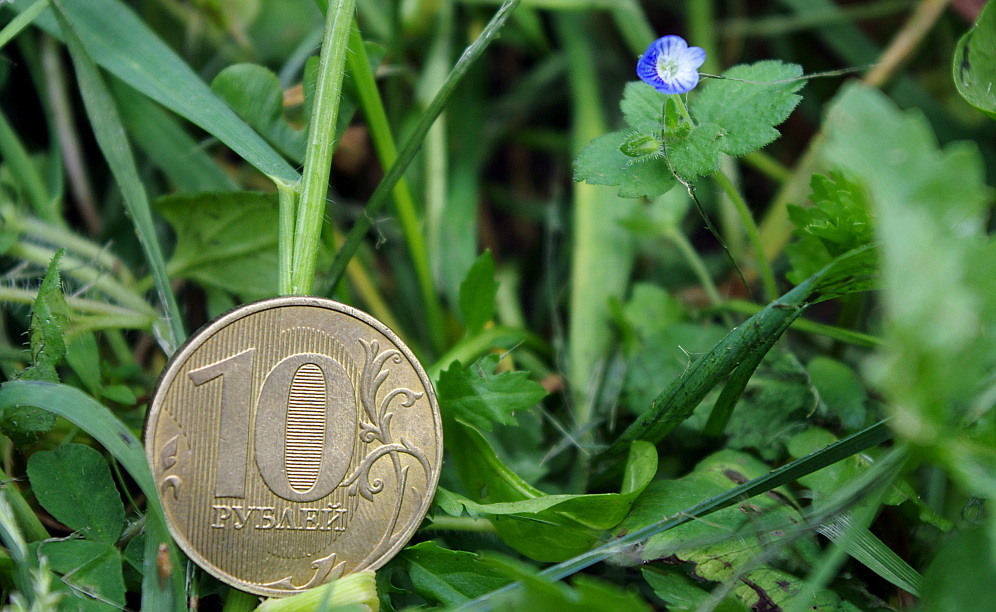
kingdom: Plantae
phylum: Tracheophyta
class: Magnoliopsida
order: Lamiales
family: Plantaginaceae
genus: Veronica
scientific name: Veronica persica
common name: Common field-speedwell
